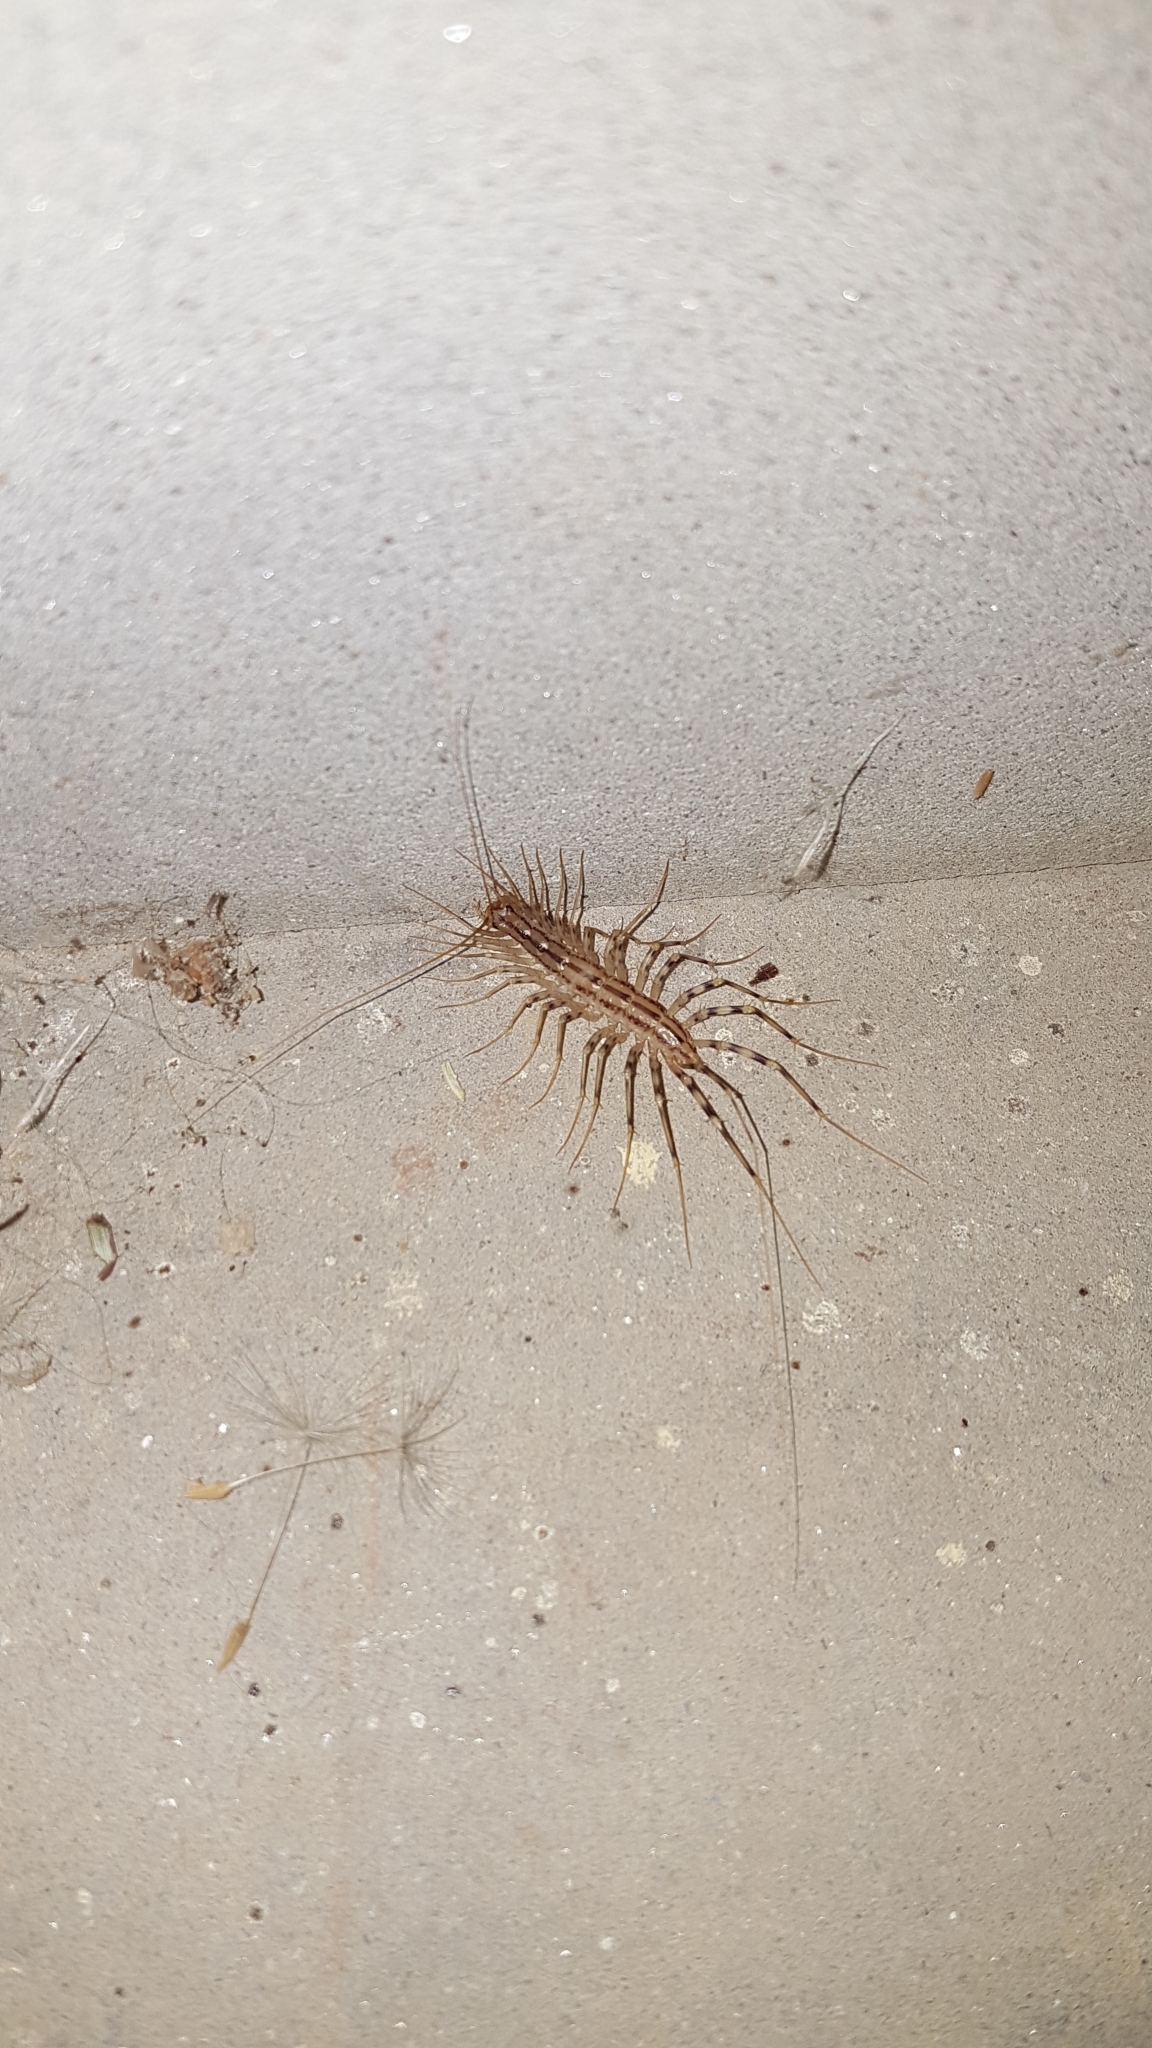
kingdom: Animalia
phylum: Arthropoda
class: Chilopoda
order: Scutigeromorpha
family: Scutigeridae
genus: Scutigera
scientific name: Scutigera coleoptrata
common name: House centipede
